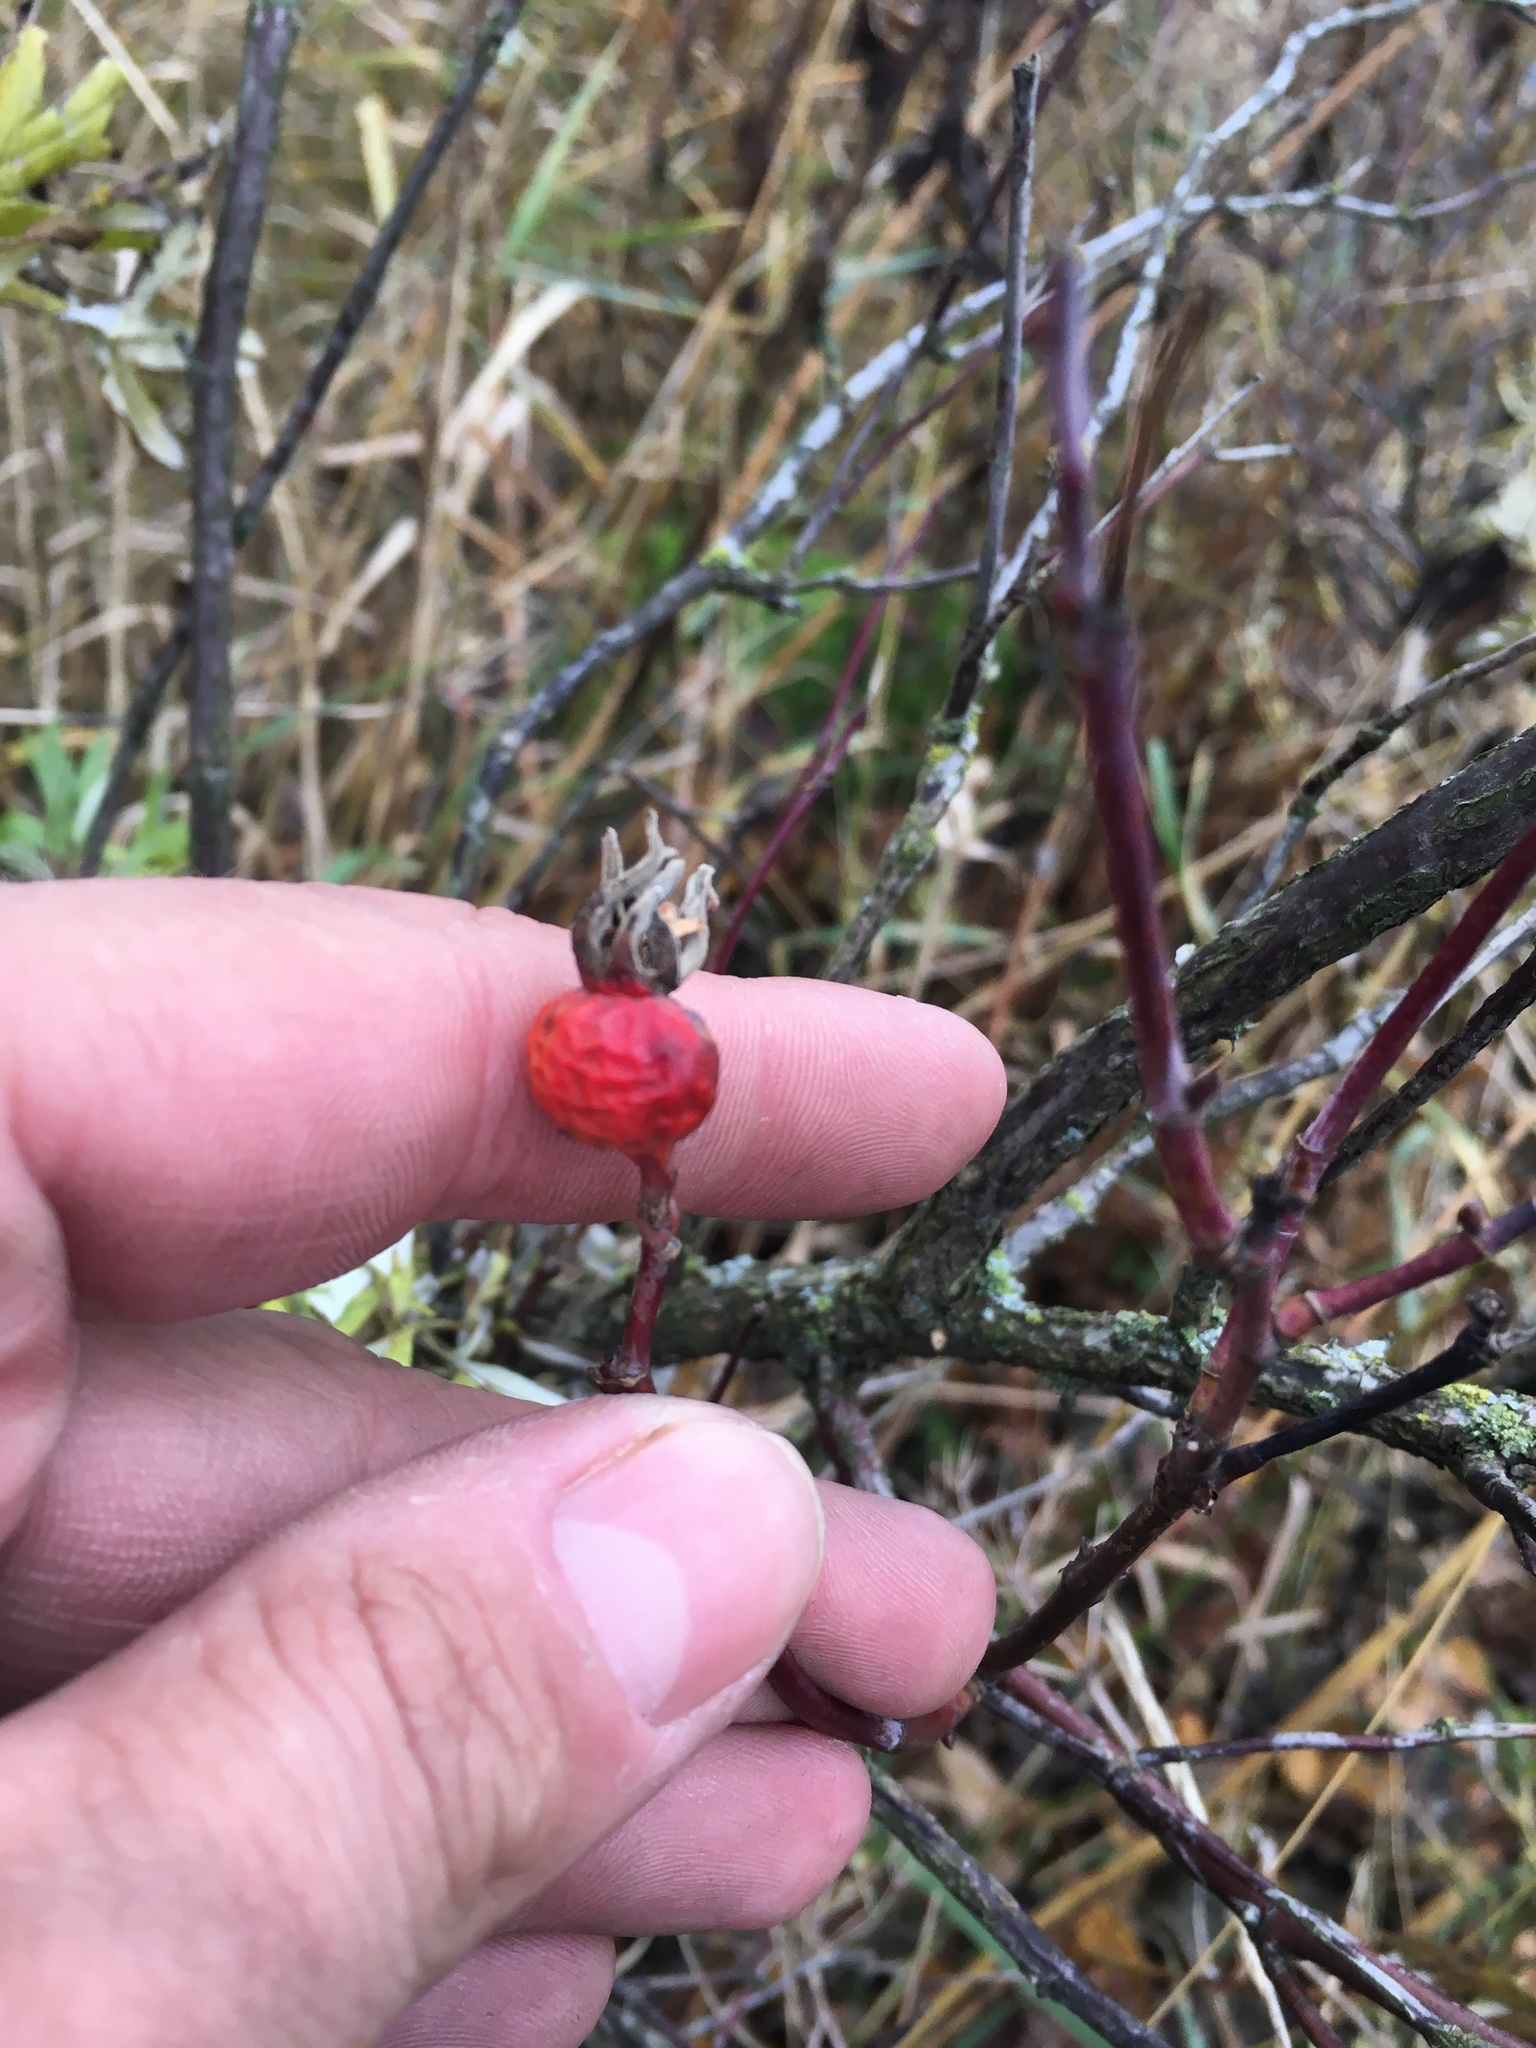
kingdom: Plantae
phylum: Tracheophyta
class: Magnoliopsida
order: Rosales
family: Rosaceae
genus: Rosa
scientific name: Rosa
